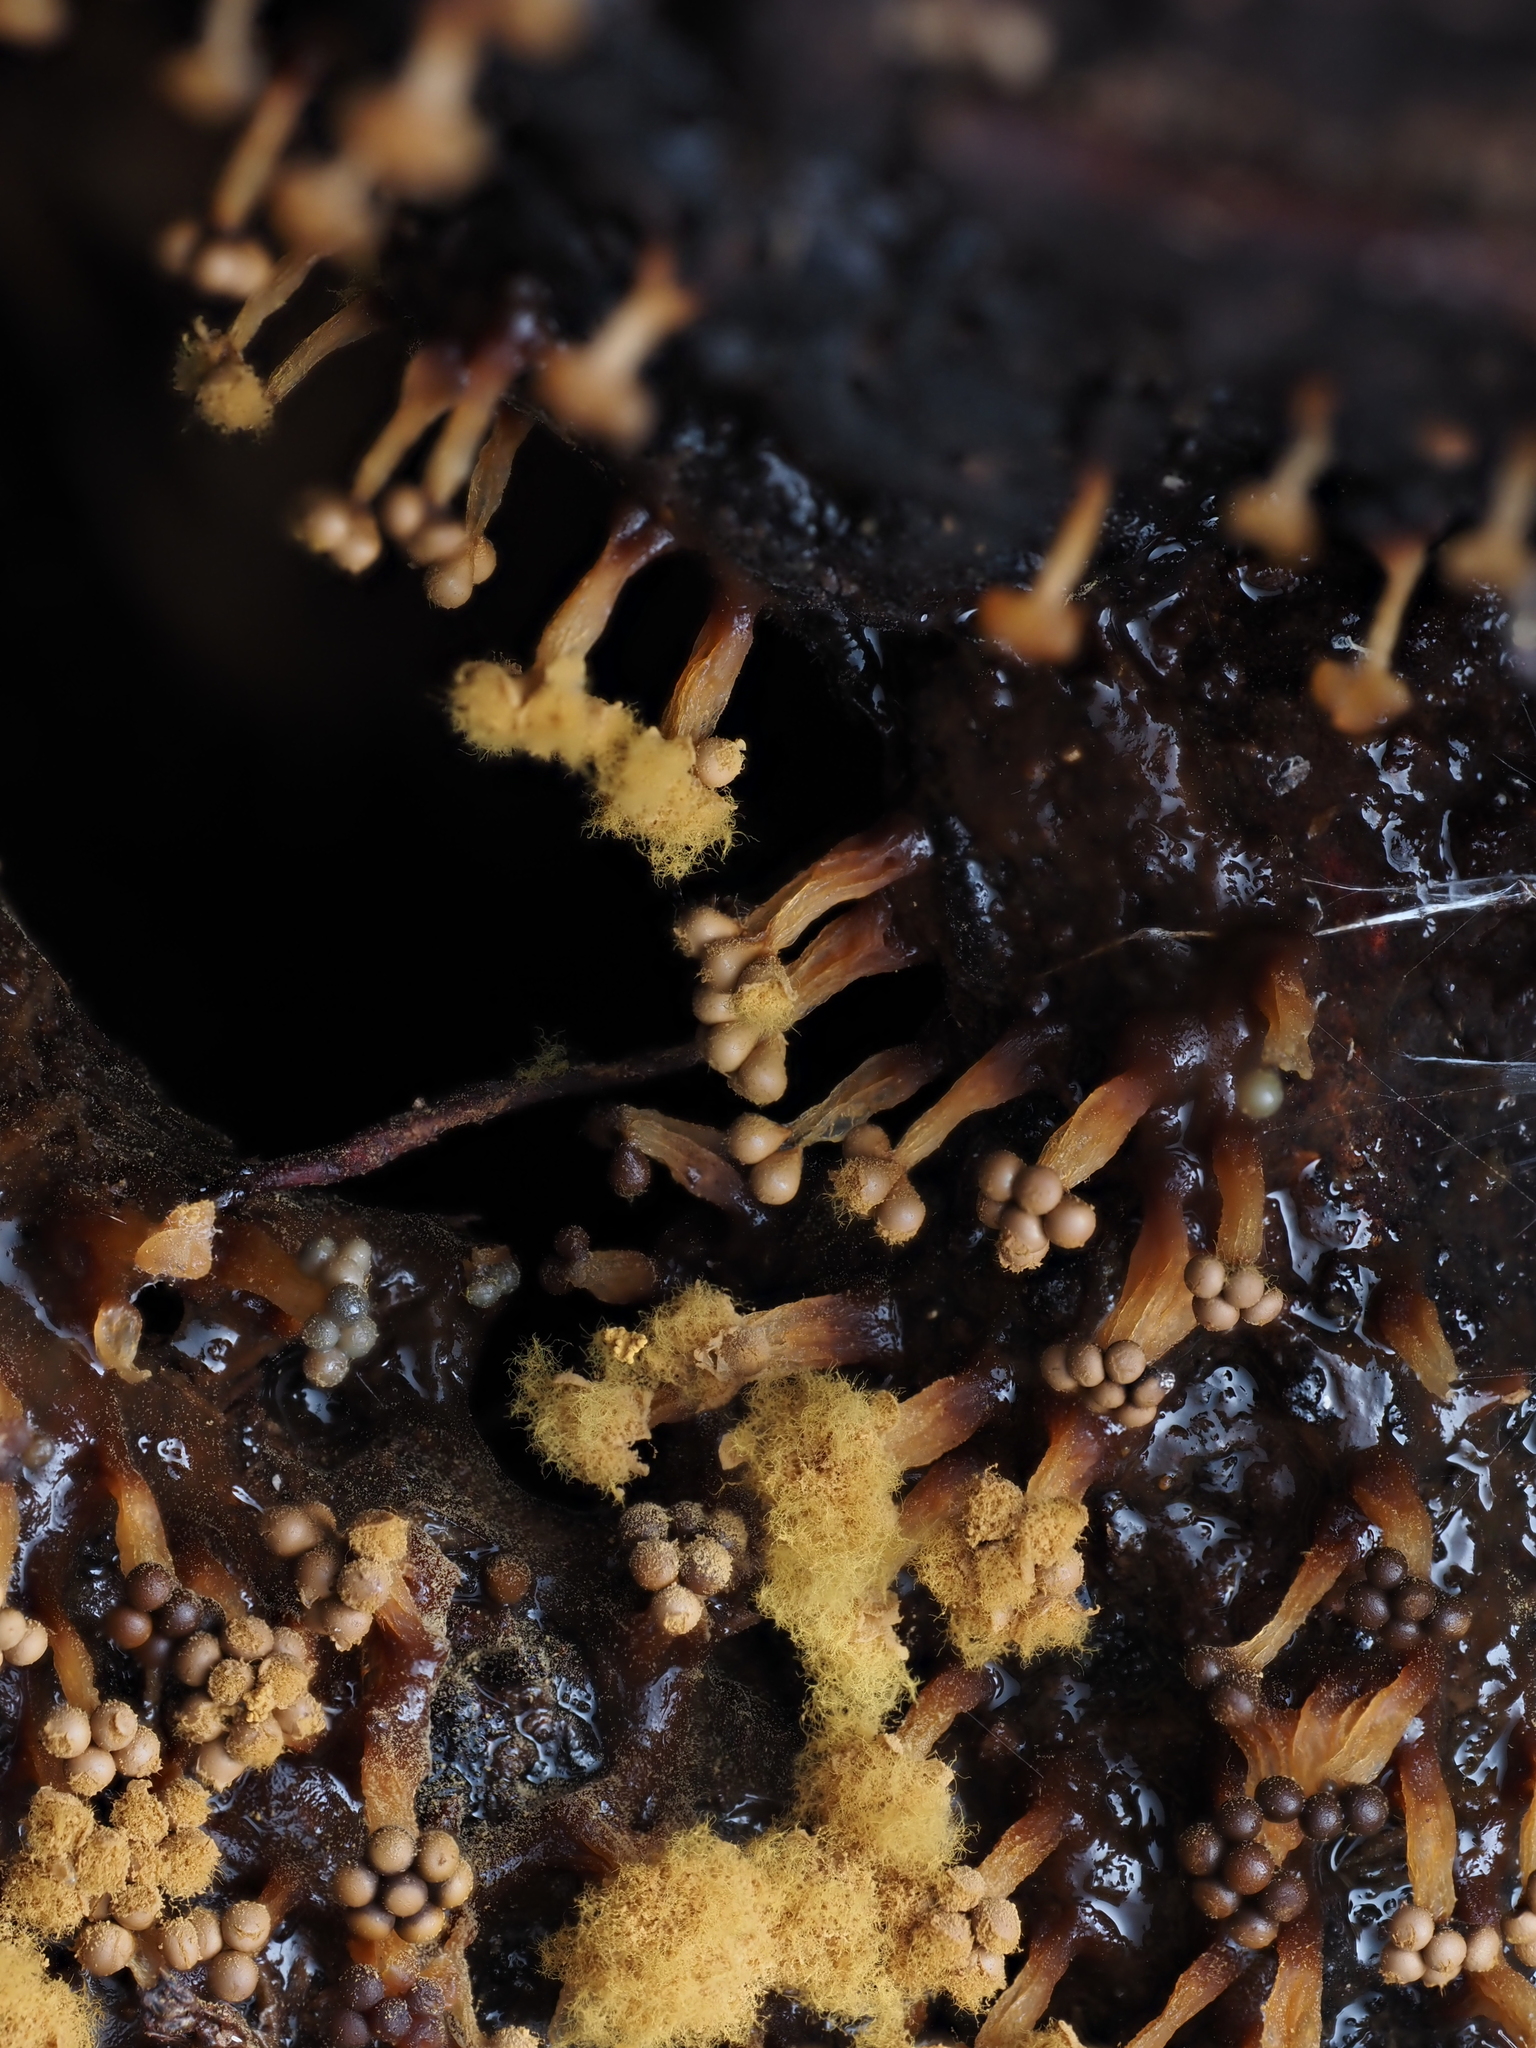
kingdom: Protozoa
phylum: Mycetozoa
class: Myxomycetes
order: Trichiales
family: Trichiaceae
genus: Oligonema
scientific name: Oligonema verrucosum
